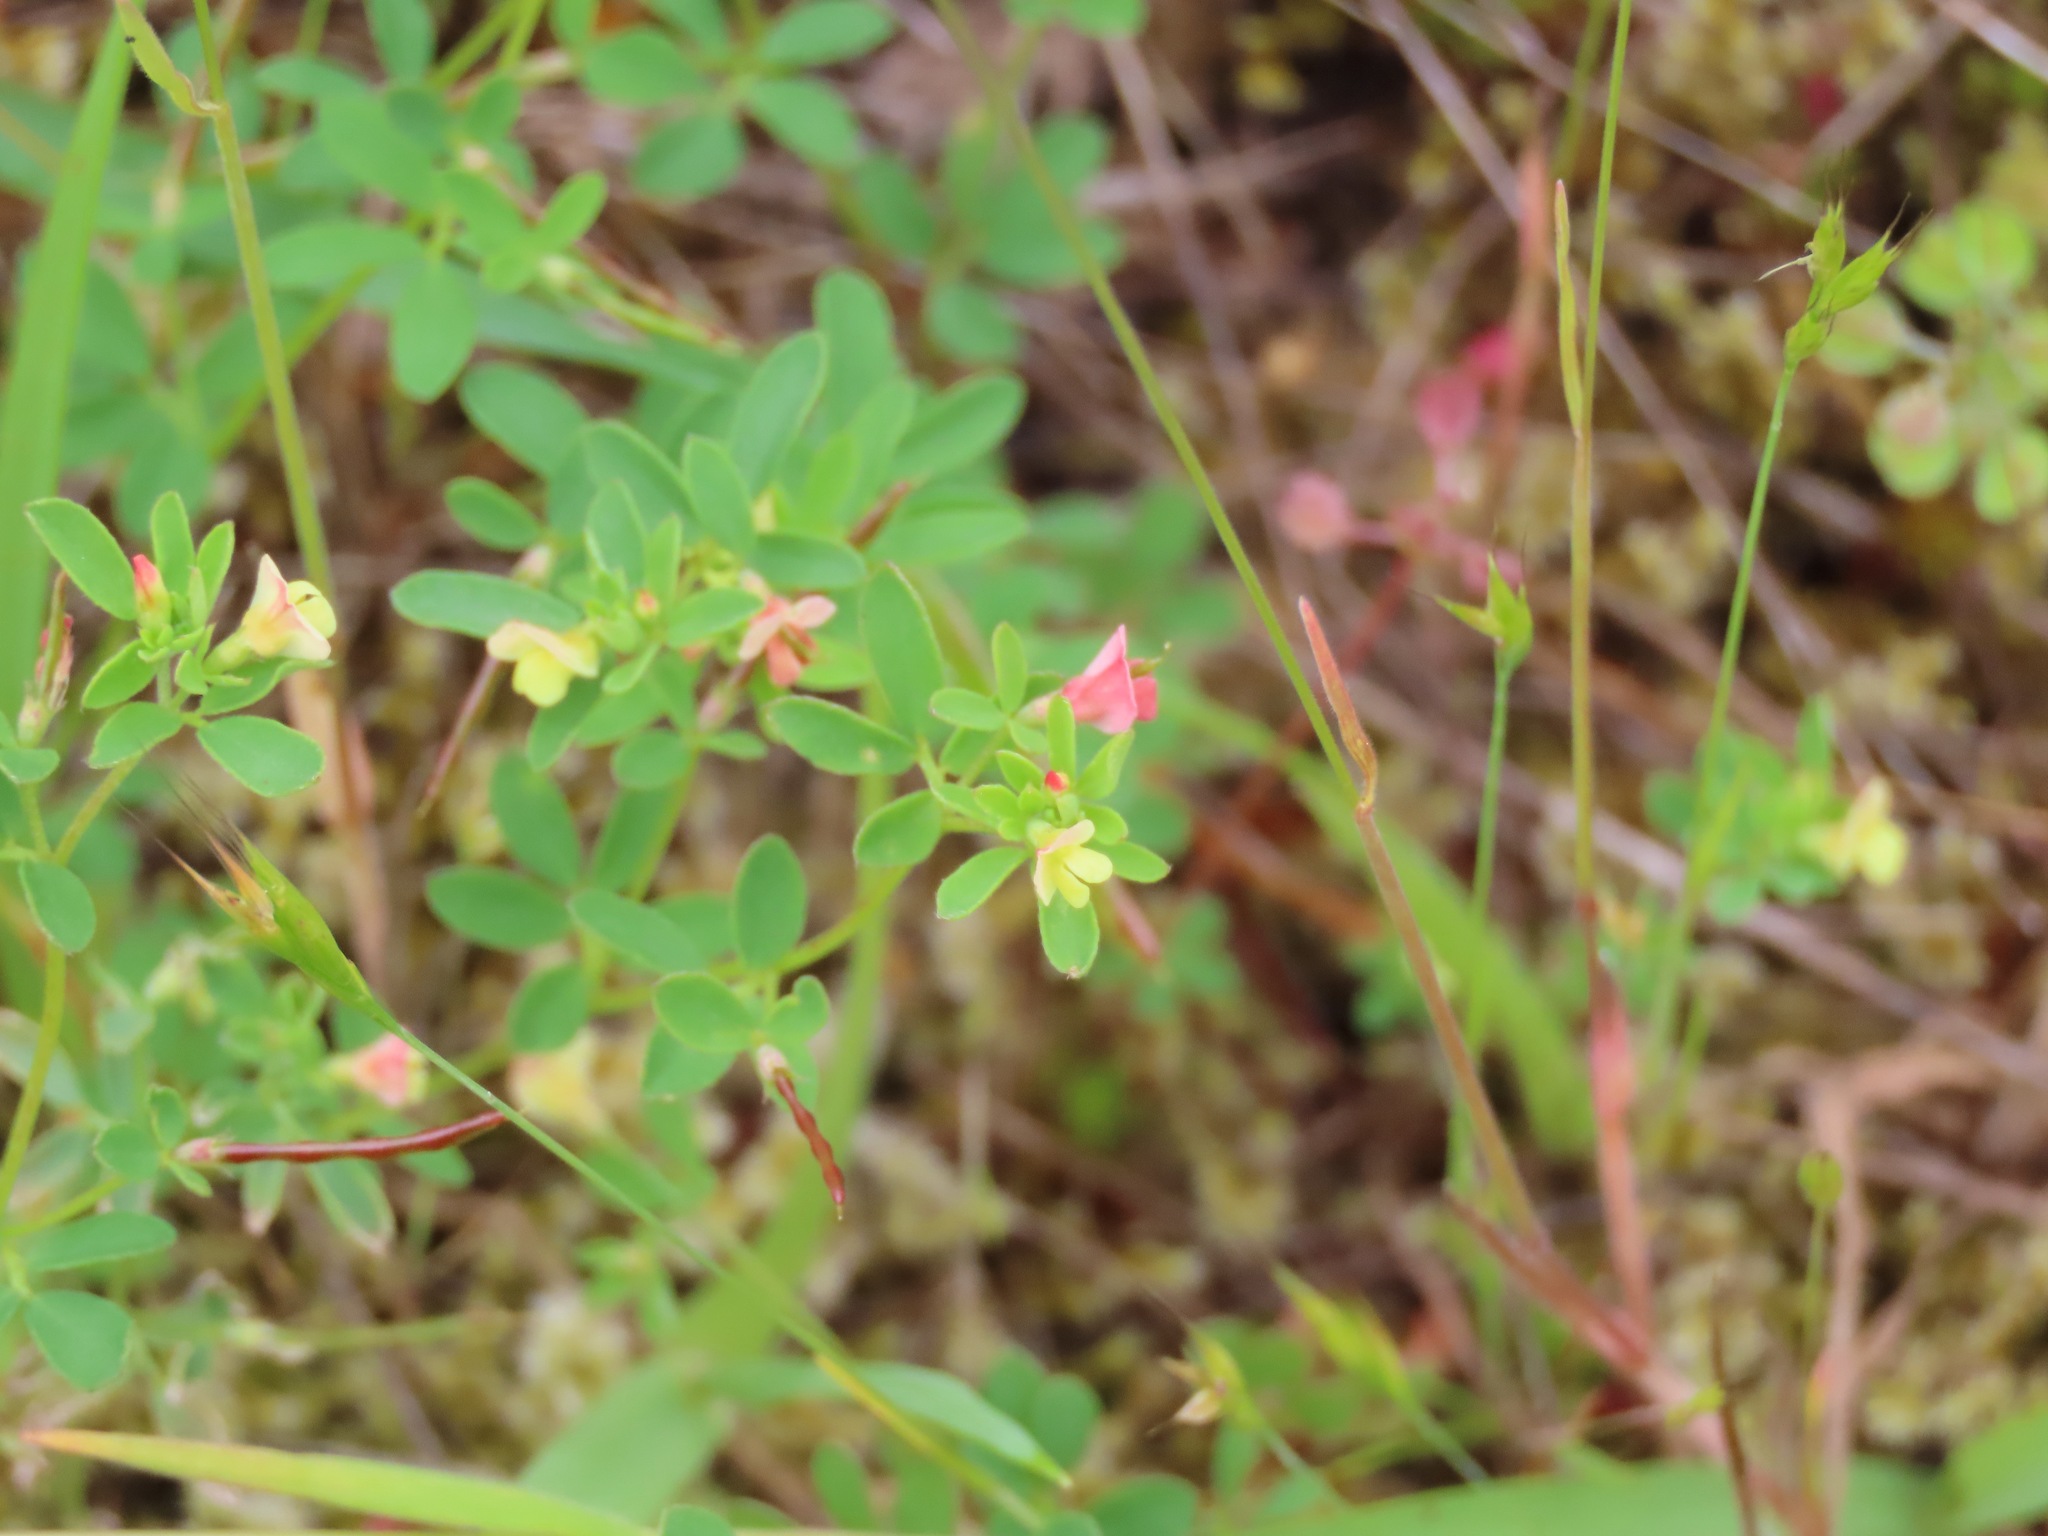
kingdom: Plantae
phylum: Tracheophyta
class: Magnoliopsida
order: Fabales
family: Fabaceae
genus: Acmispon
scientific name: Acmispon parviflorus
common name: Desert deer-vetch
